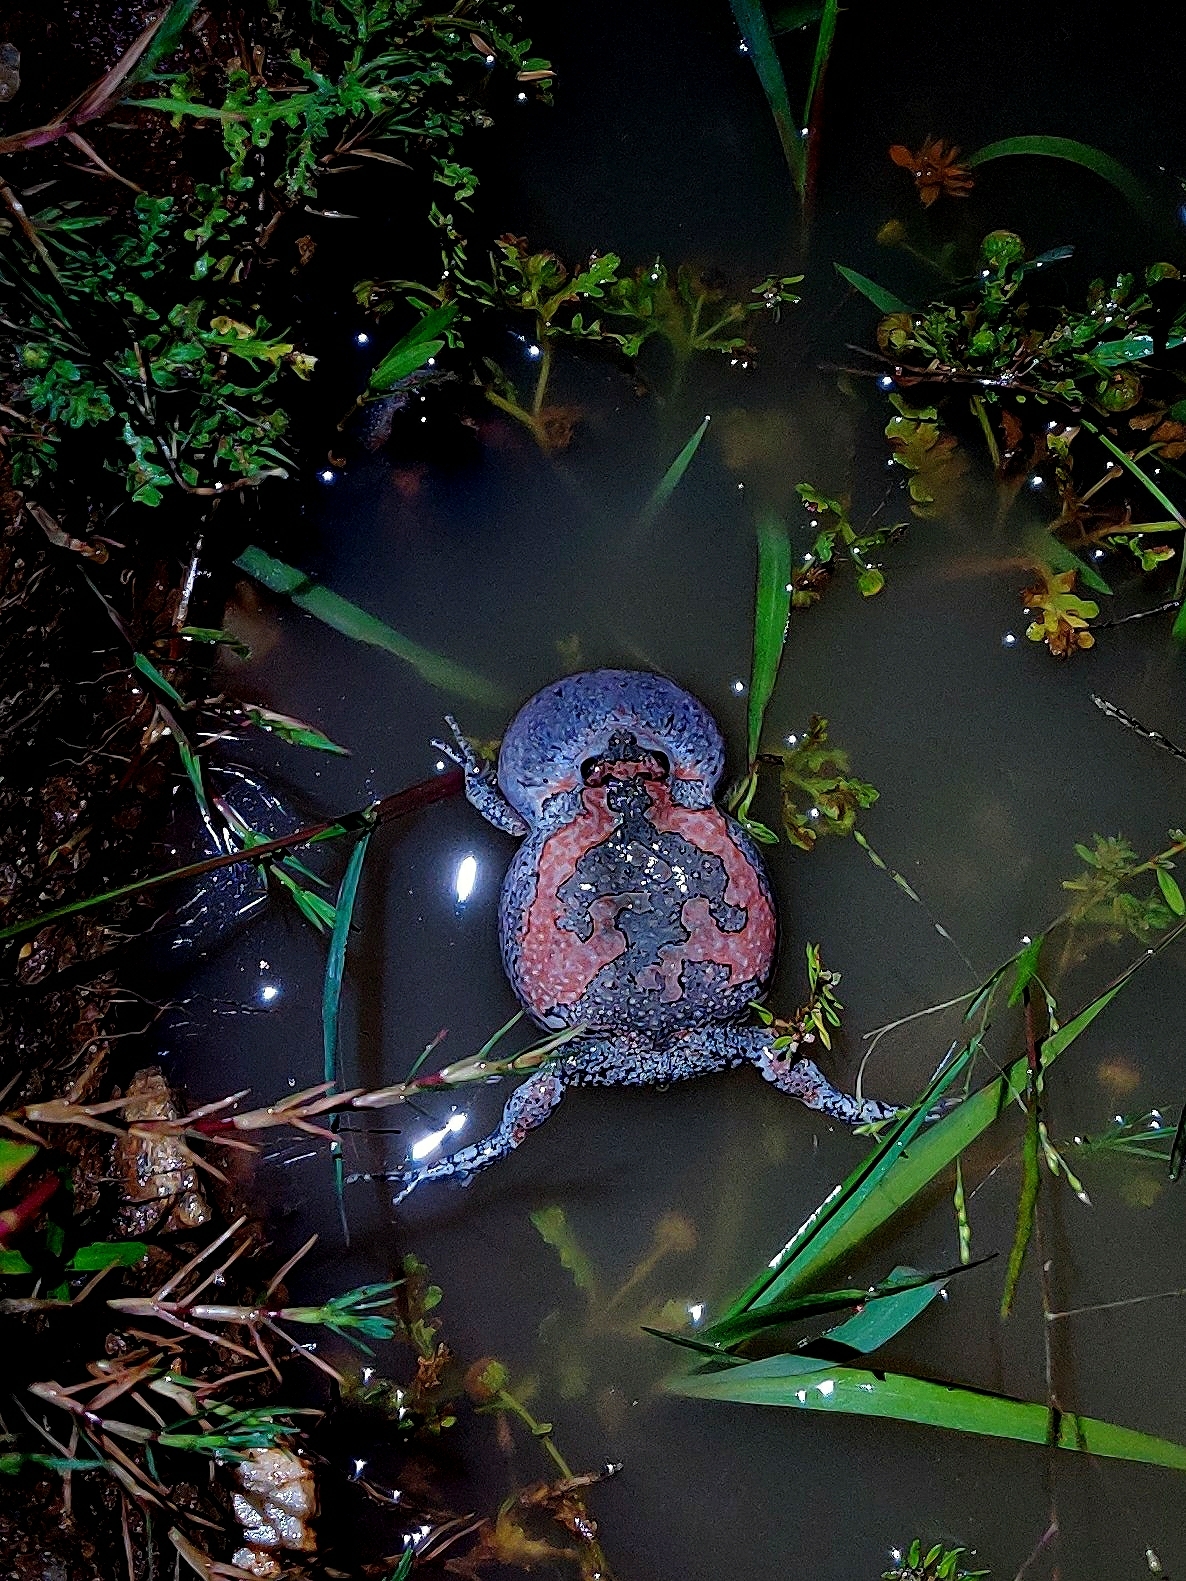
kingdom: Animalia
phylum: Chordata
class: Amphibia
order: Anura
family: Microhylidae
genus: Uperodon
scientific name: Uperodon taprobanicus
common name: Ceylon kaloula
